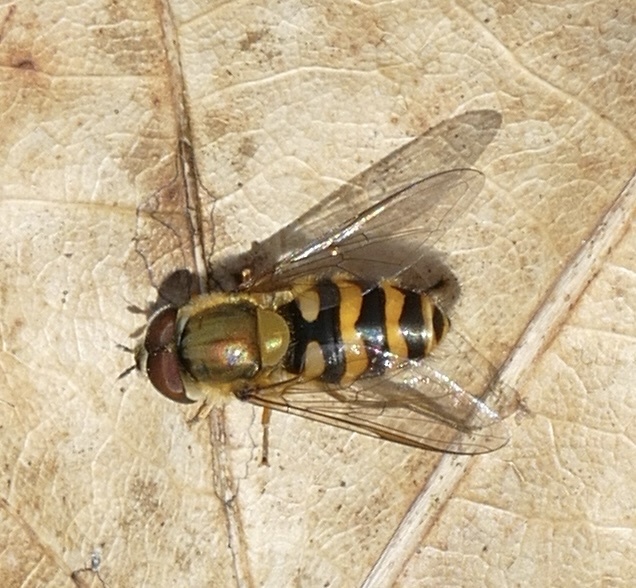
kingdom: Animalia
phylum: Arthropoda
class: Insecta
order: Diptera
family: Syrphidae
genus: Syrphus
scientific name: Syrphus torvus
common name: Hairy-eyed flower fly
